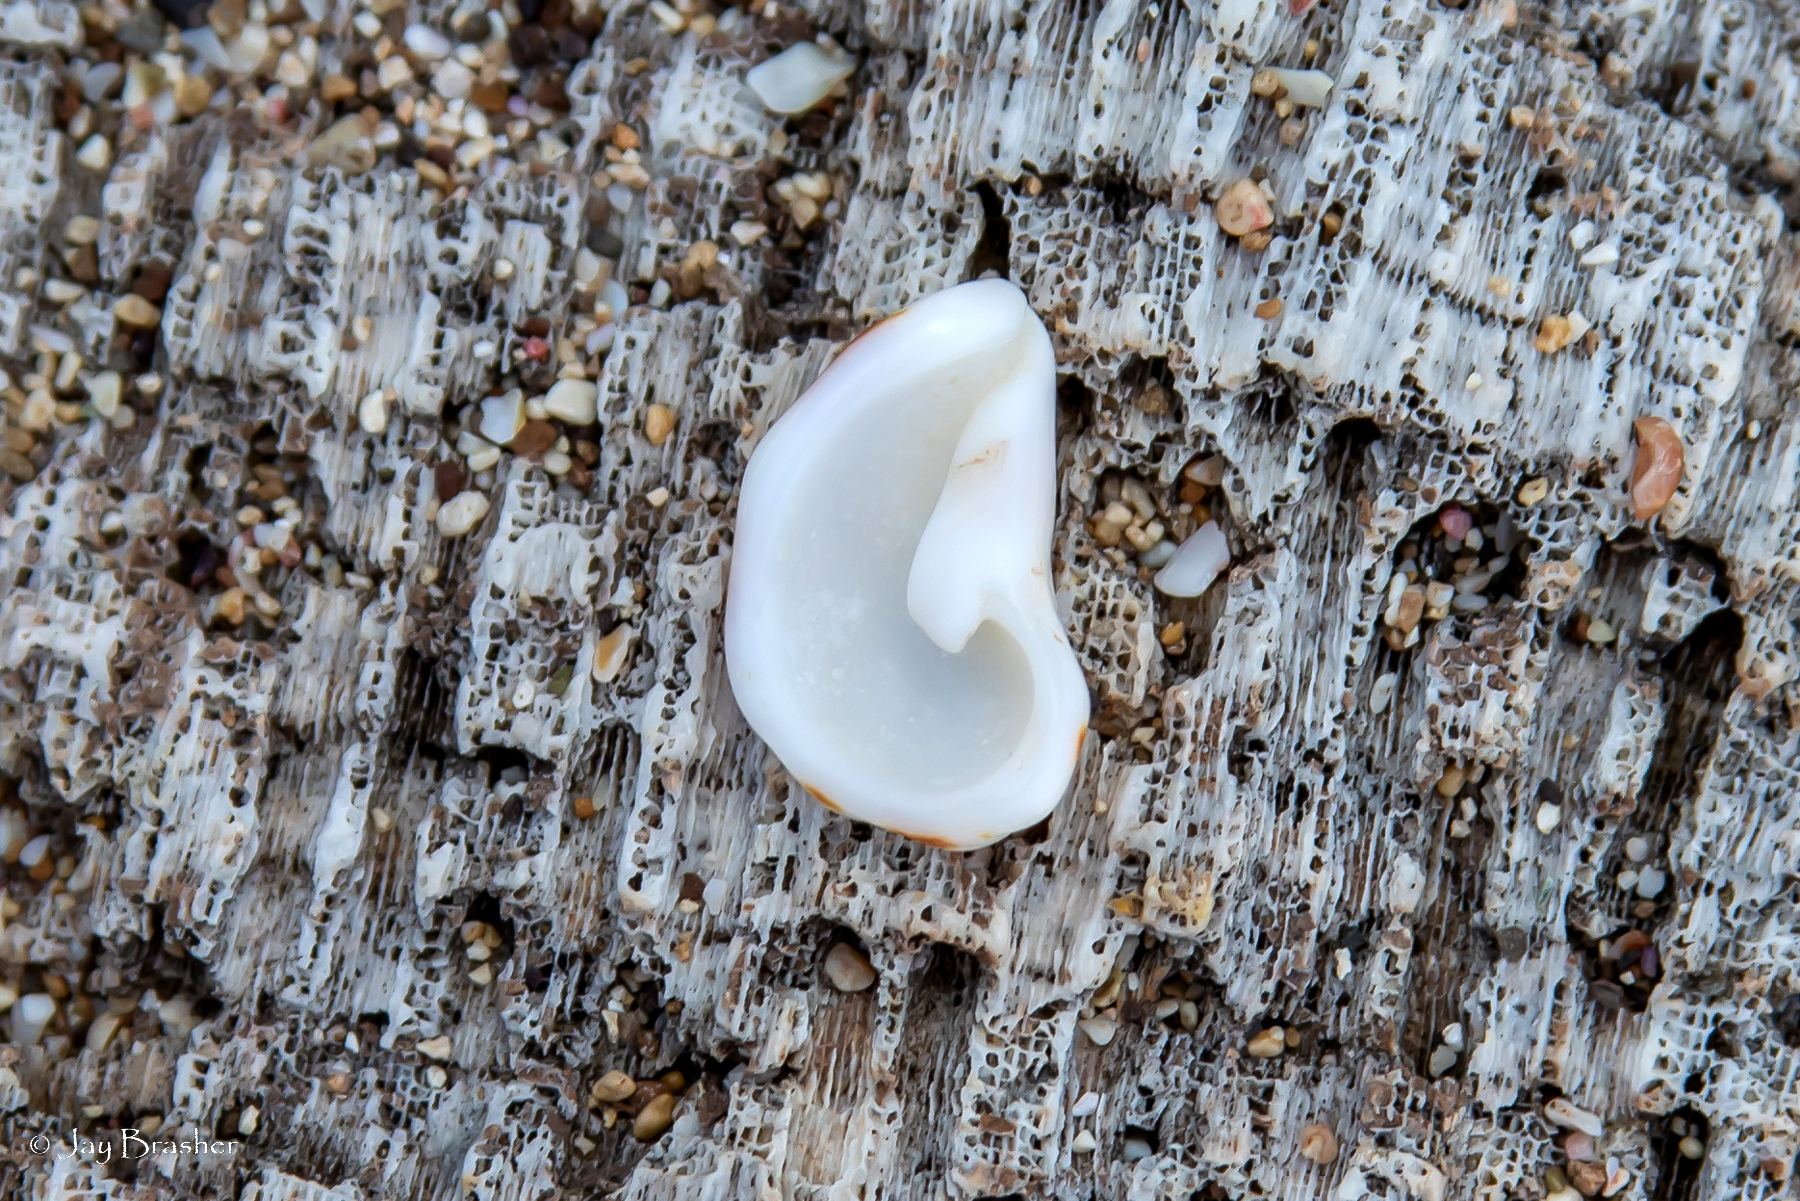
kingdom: Animalia
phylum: Mollusca
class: Gastropoda
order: Neogastropoda
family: Muricidae
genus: Vasula
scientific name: Vasula deltoidea
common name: Deltoid rocksnail
